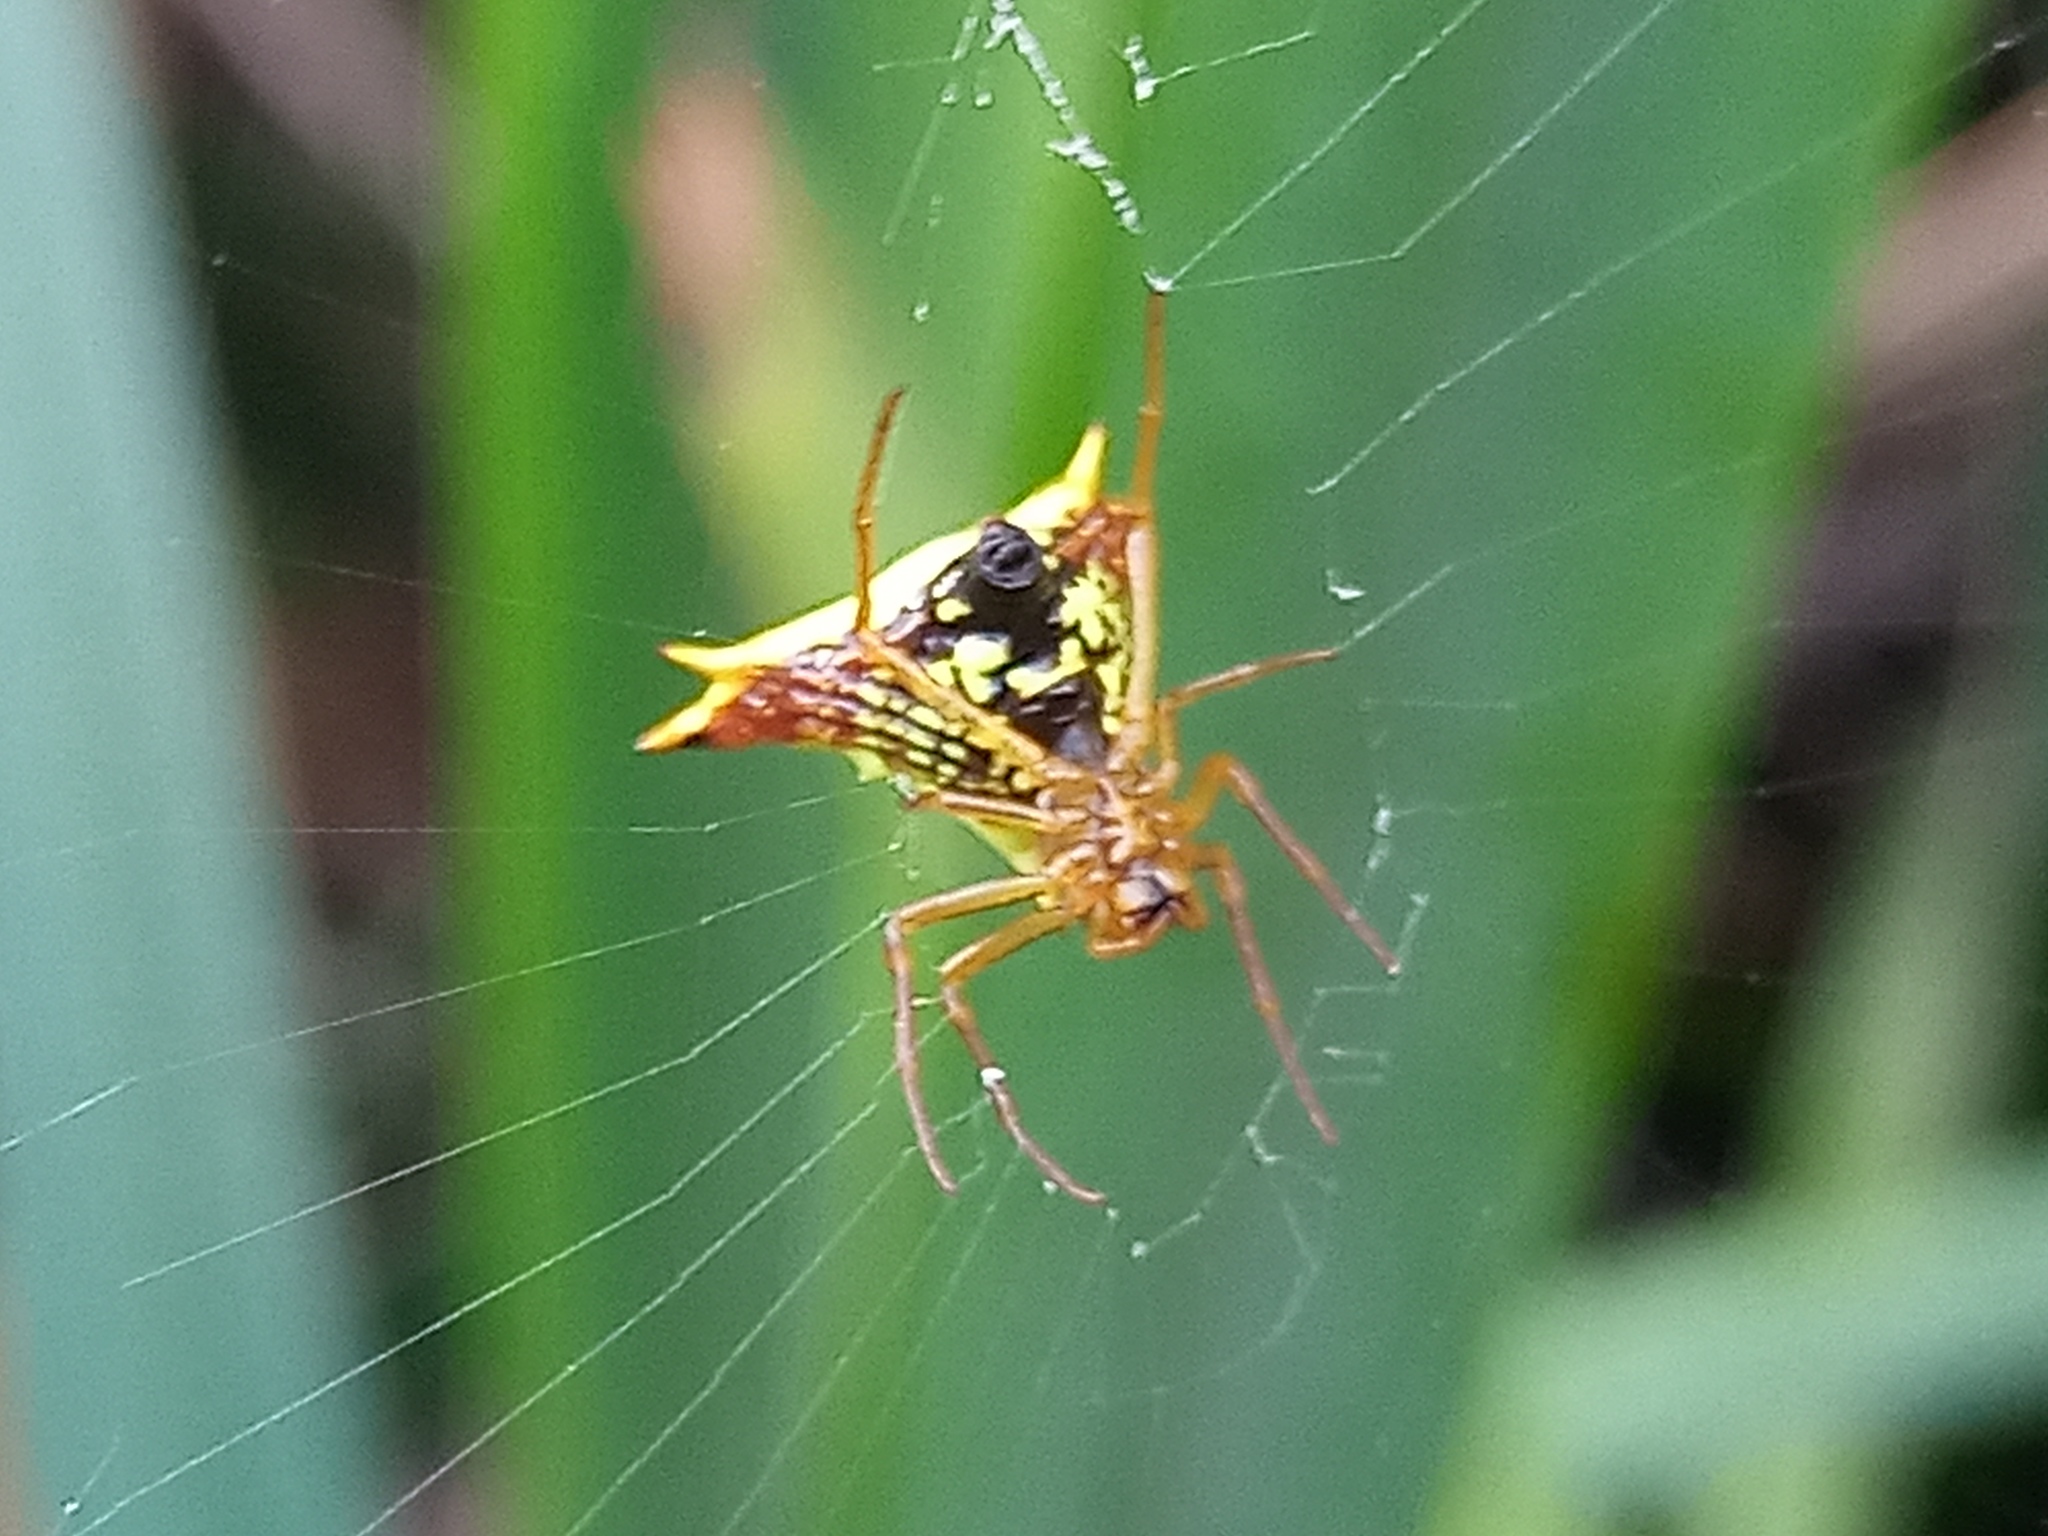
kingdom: Animalia
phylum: Arthropoda
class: Arachnida
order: Araneae
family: Araneidae
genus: Micrathena
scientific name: Micrathena furcata
